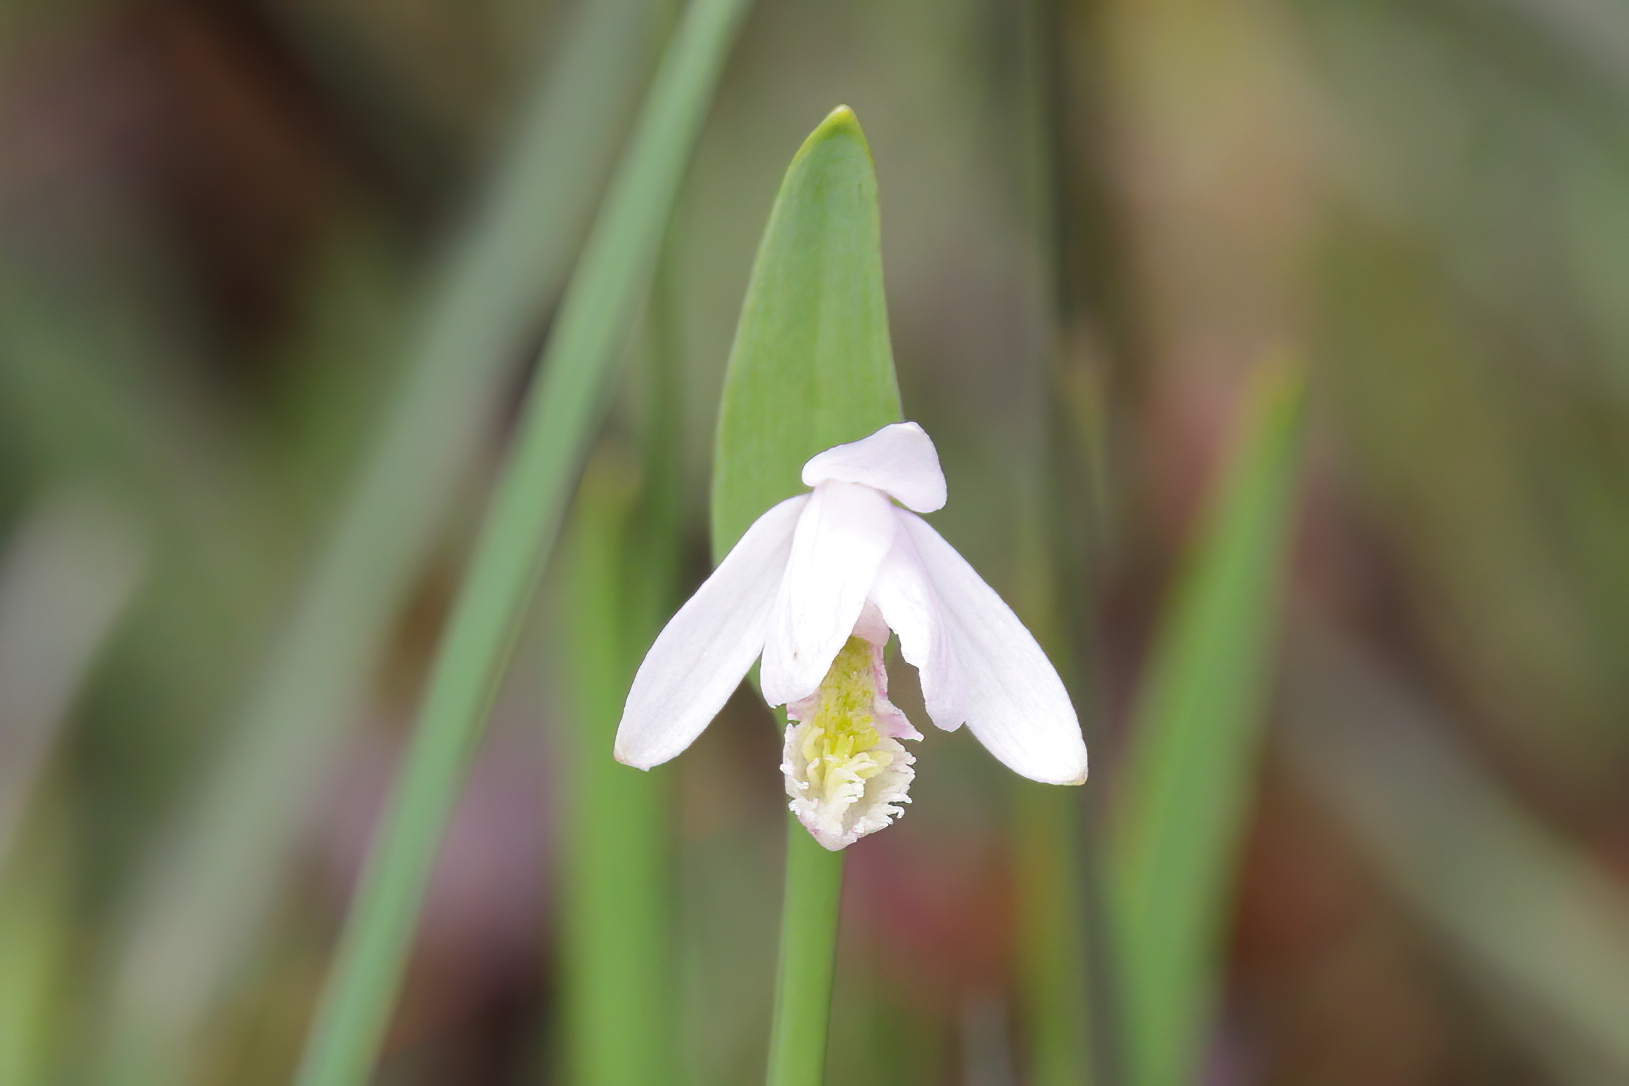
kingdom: Plantae
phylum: Tracheophyta
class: Liliopsida
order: Asparagales
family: Orchidaceae
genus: Pogonia
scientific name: Pogonia ophioglossoides
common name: Rose pogonia
